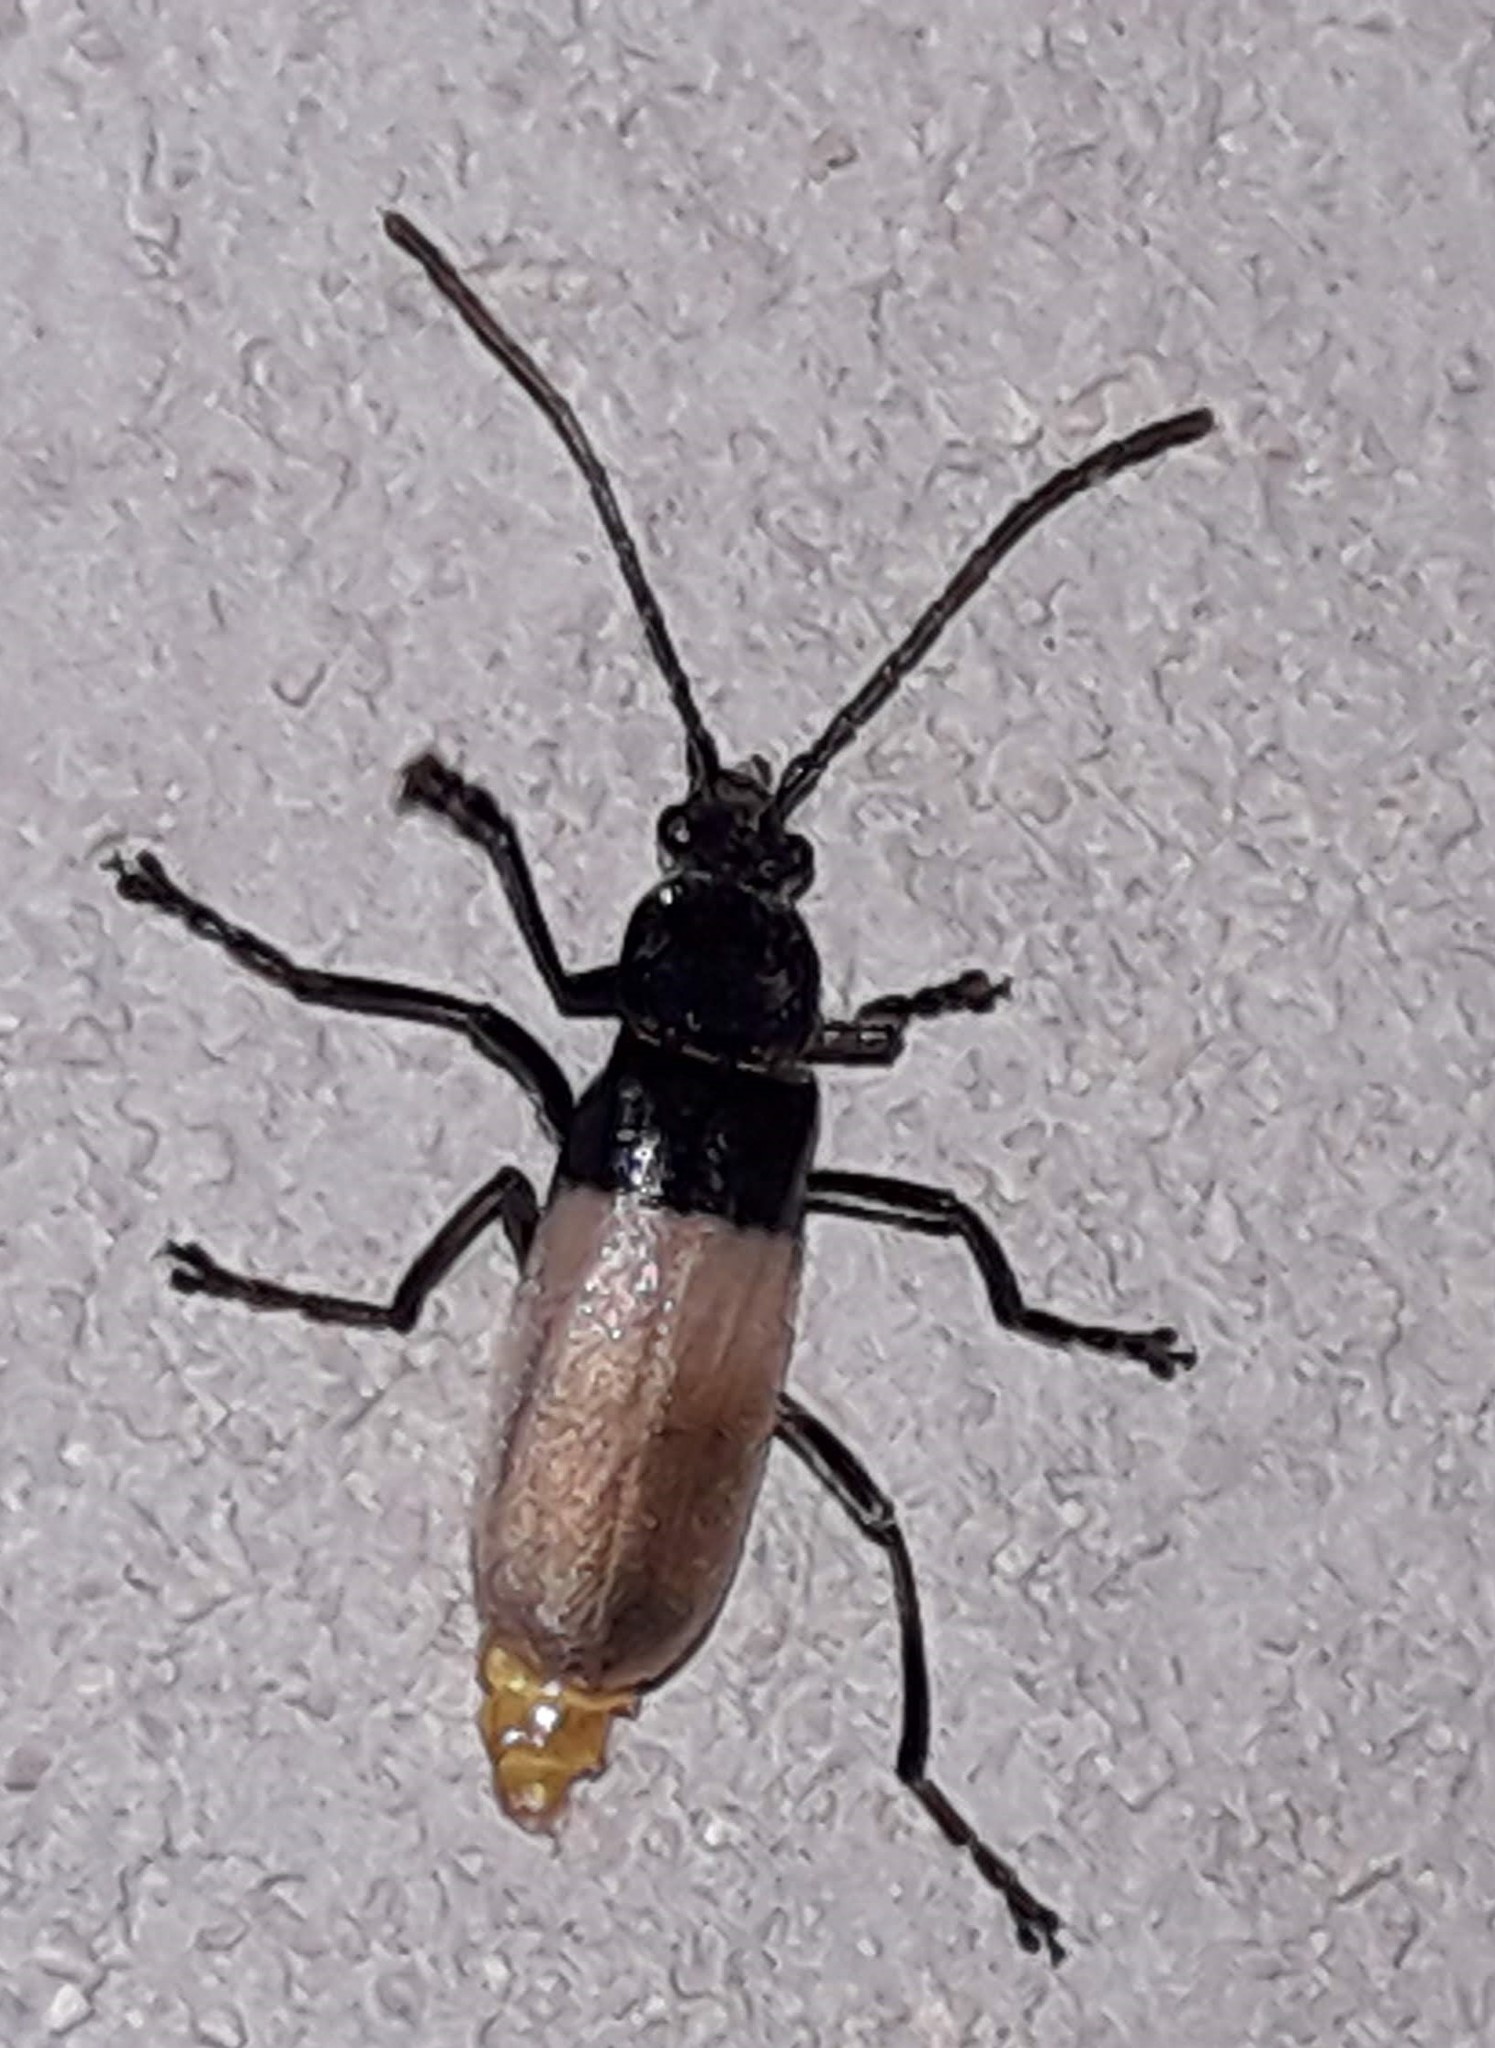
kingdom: Animalia
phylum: Arthropoda
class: Insecta
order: Coleoptera
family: Cantharidae
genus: Chauliognathus
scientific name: Chauliognathus
